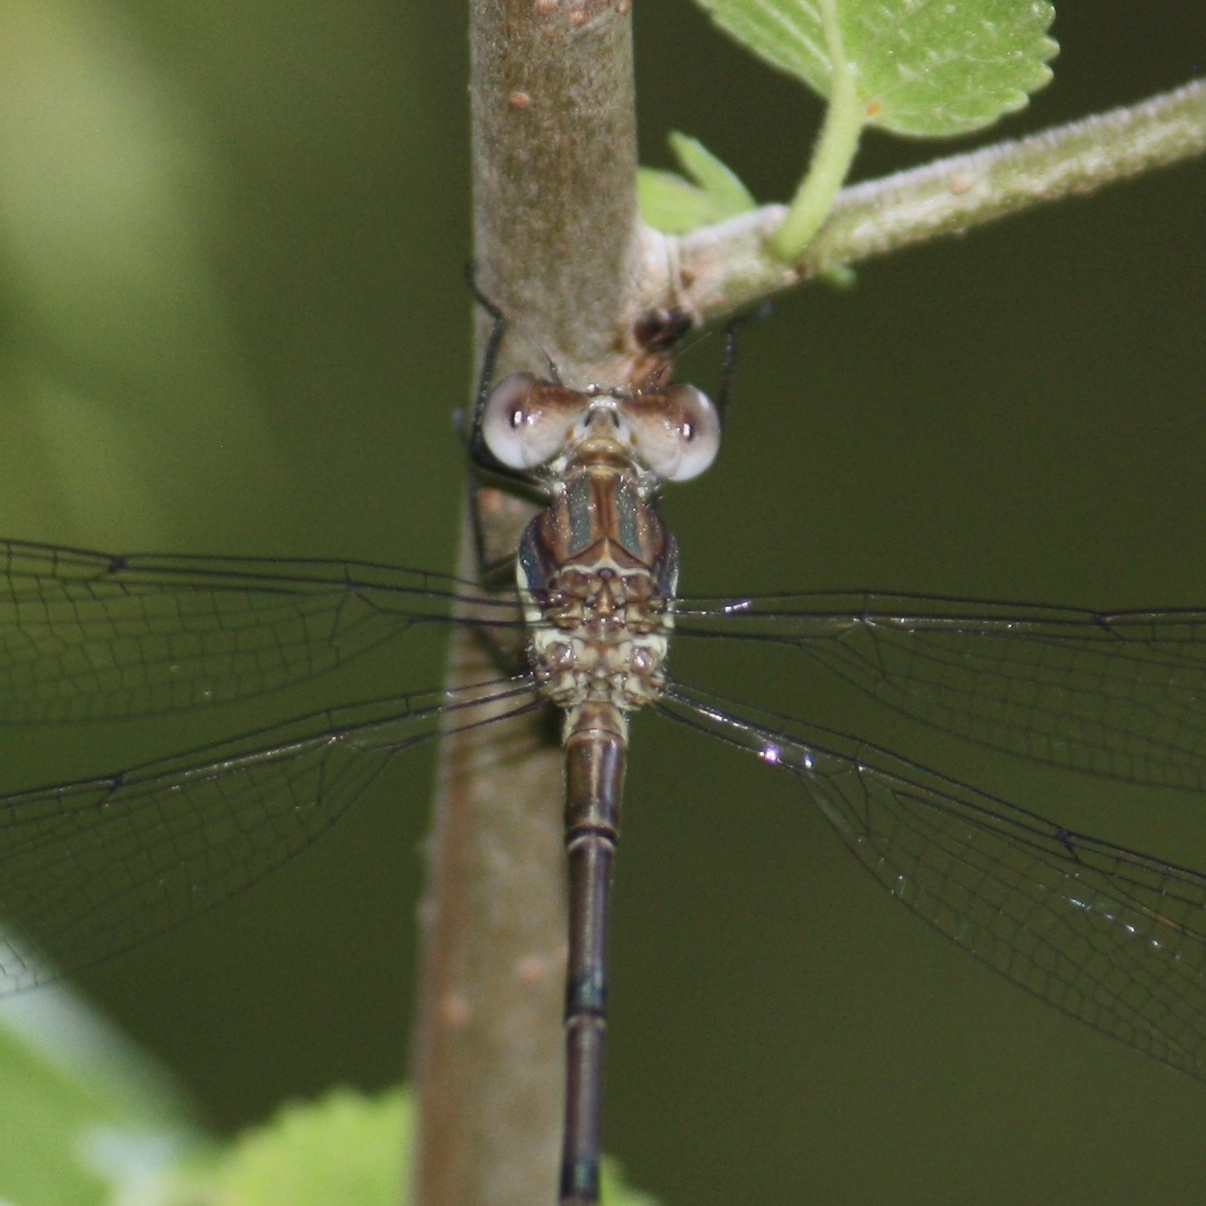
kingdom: Animalia
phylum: Arthropoda
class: Insecta
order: Odonata
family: Lestidae
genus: Archilestes
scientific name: Archilestes grandis
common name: Great spreadwing
